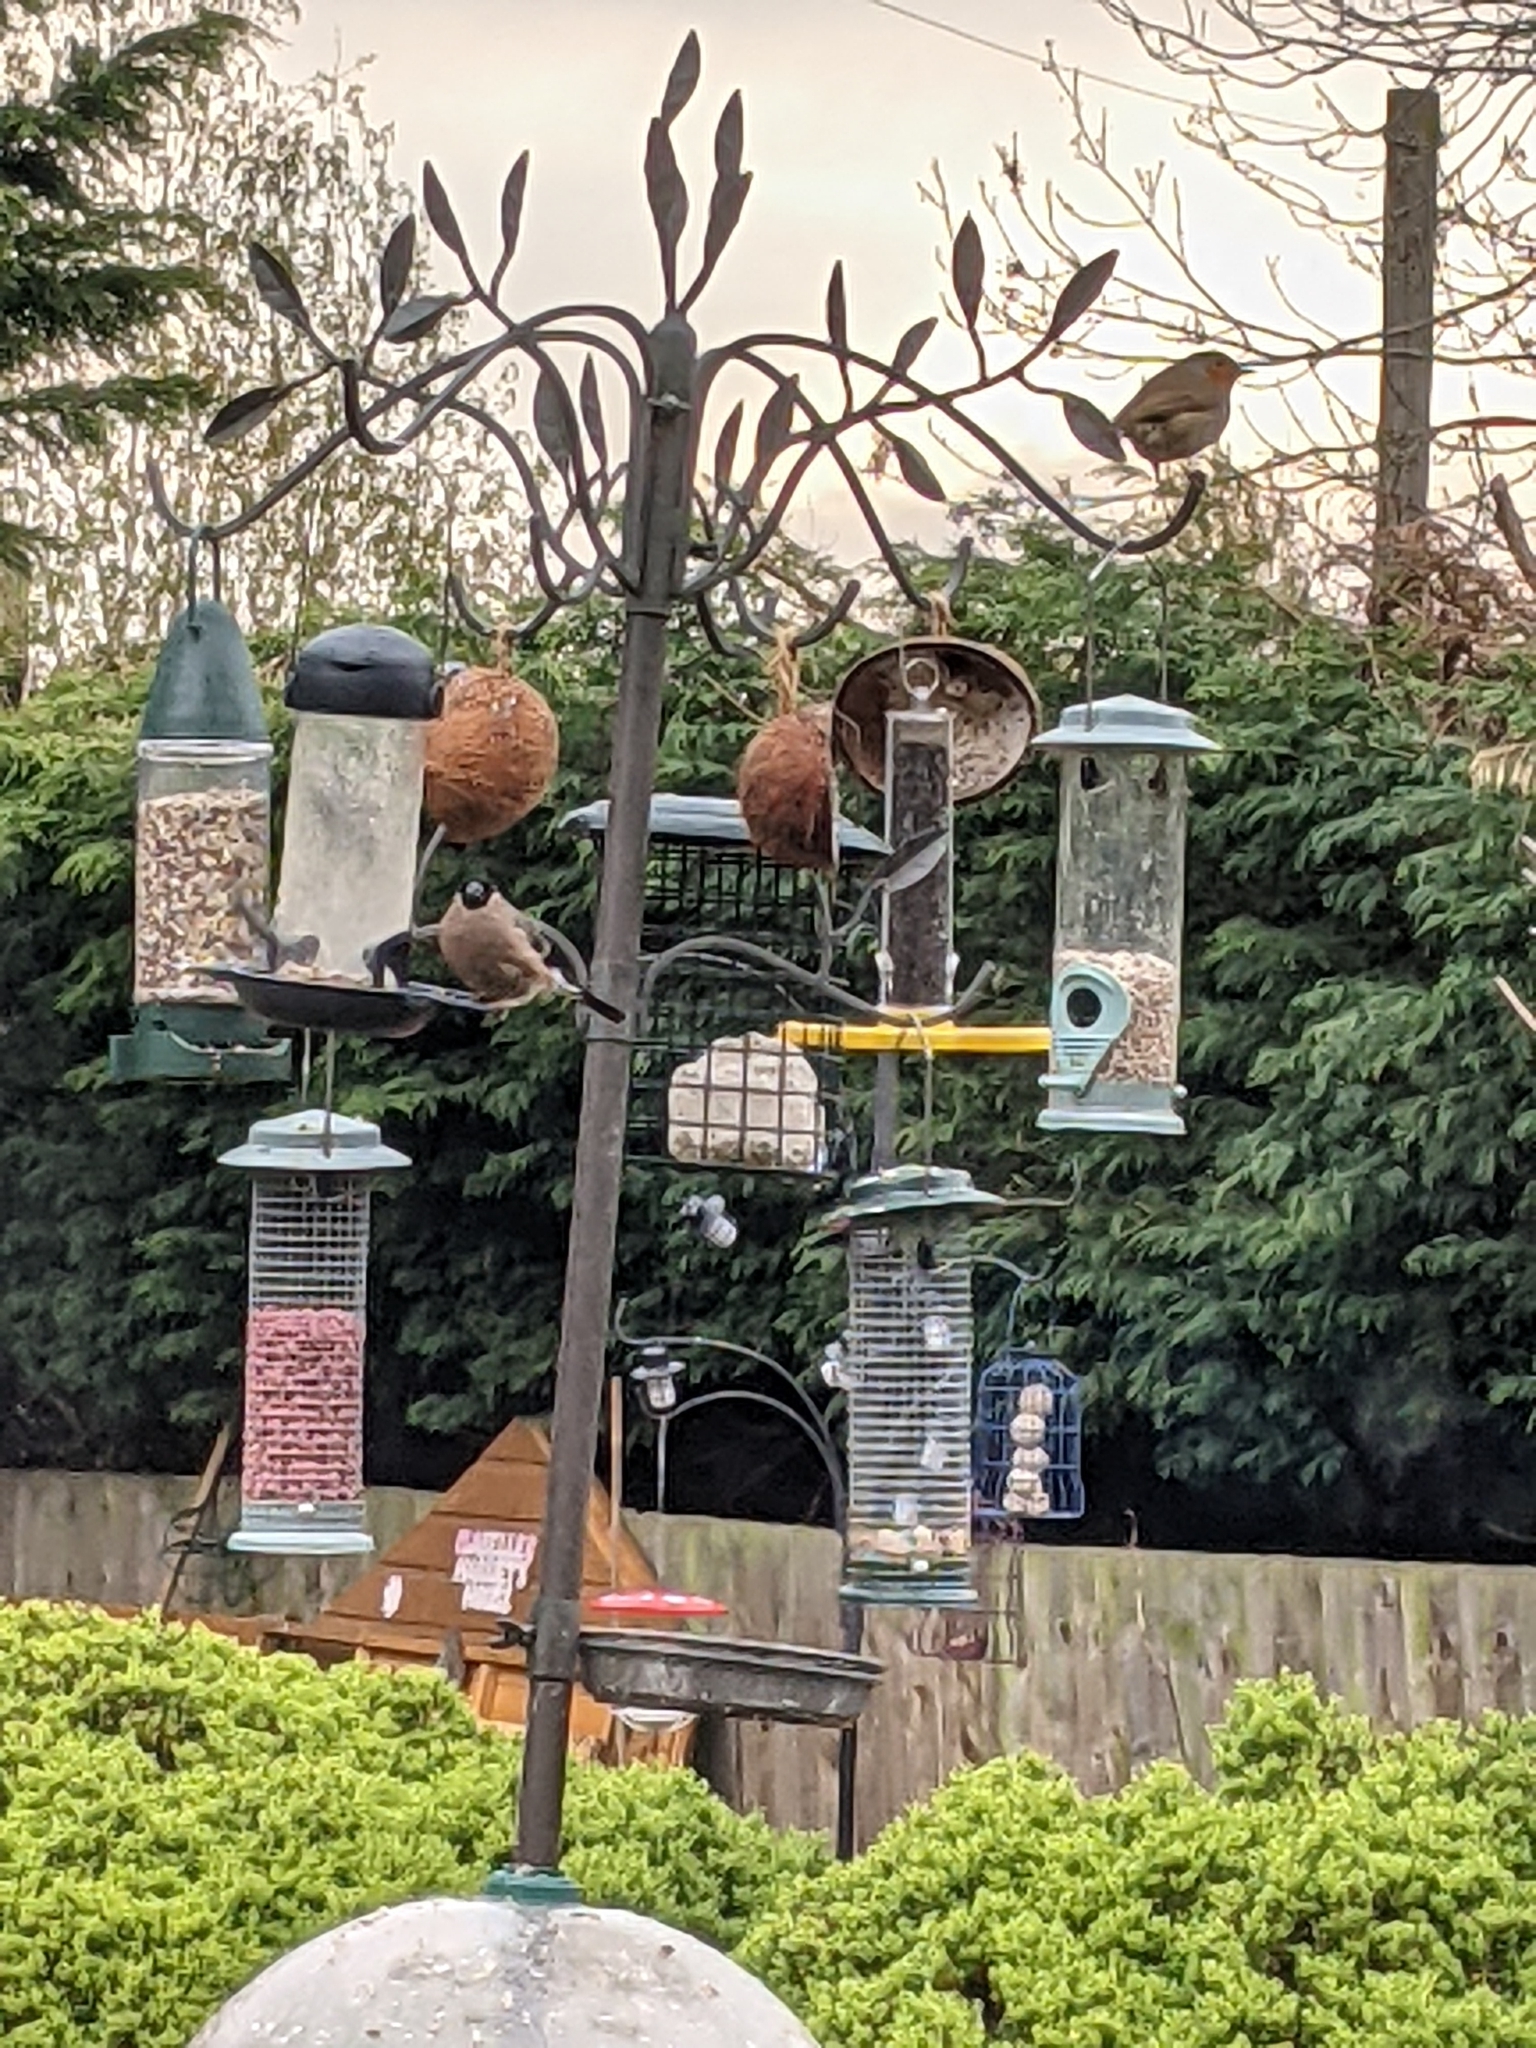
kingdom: Animalia
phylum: Chordata
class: Aves
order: Passeriformes
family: Fringillidae
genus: Pyrrhula
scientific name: Pyrrhula pyrrhula
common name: Eurasian bullfinch
